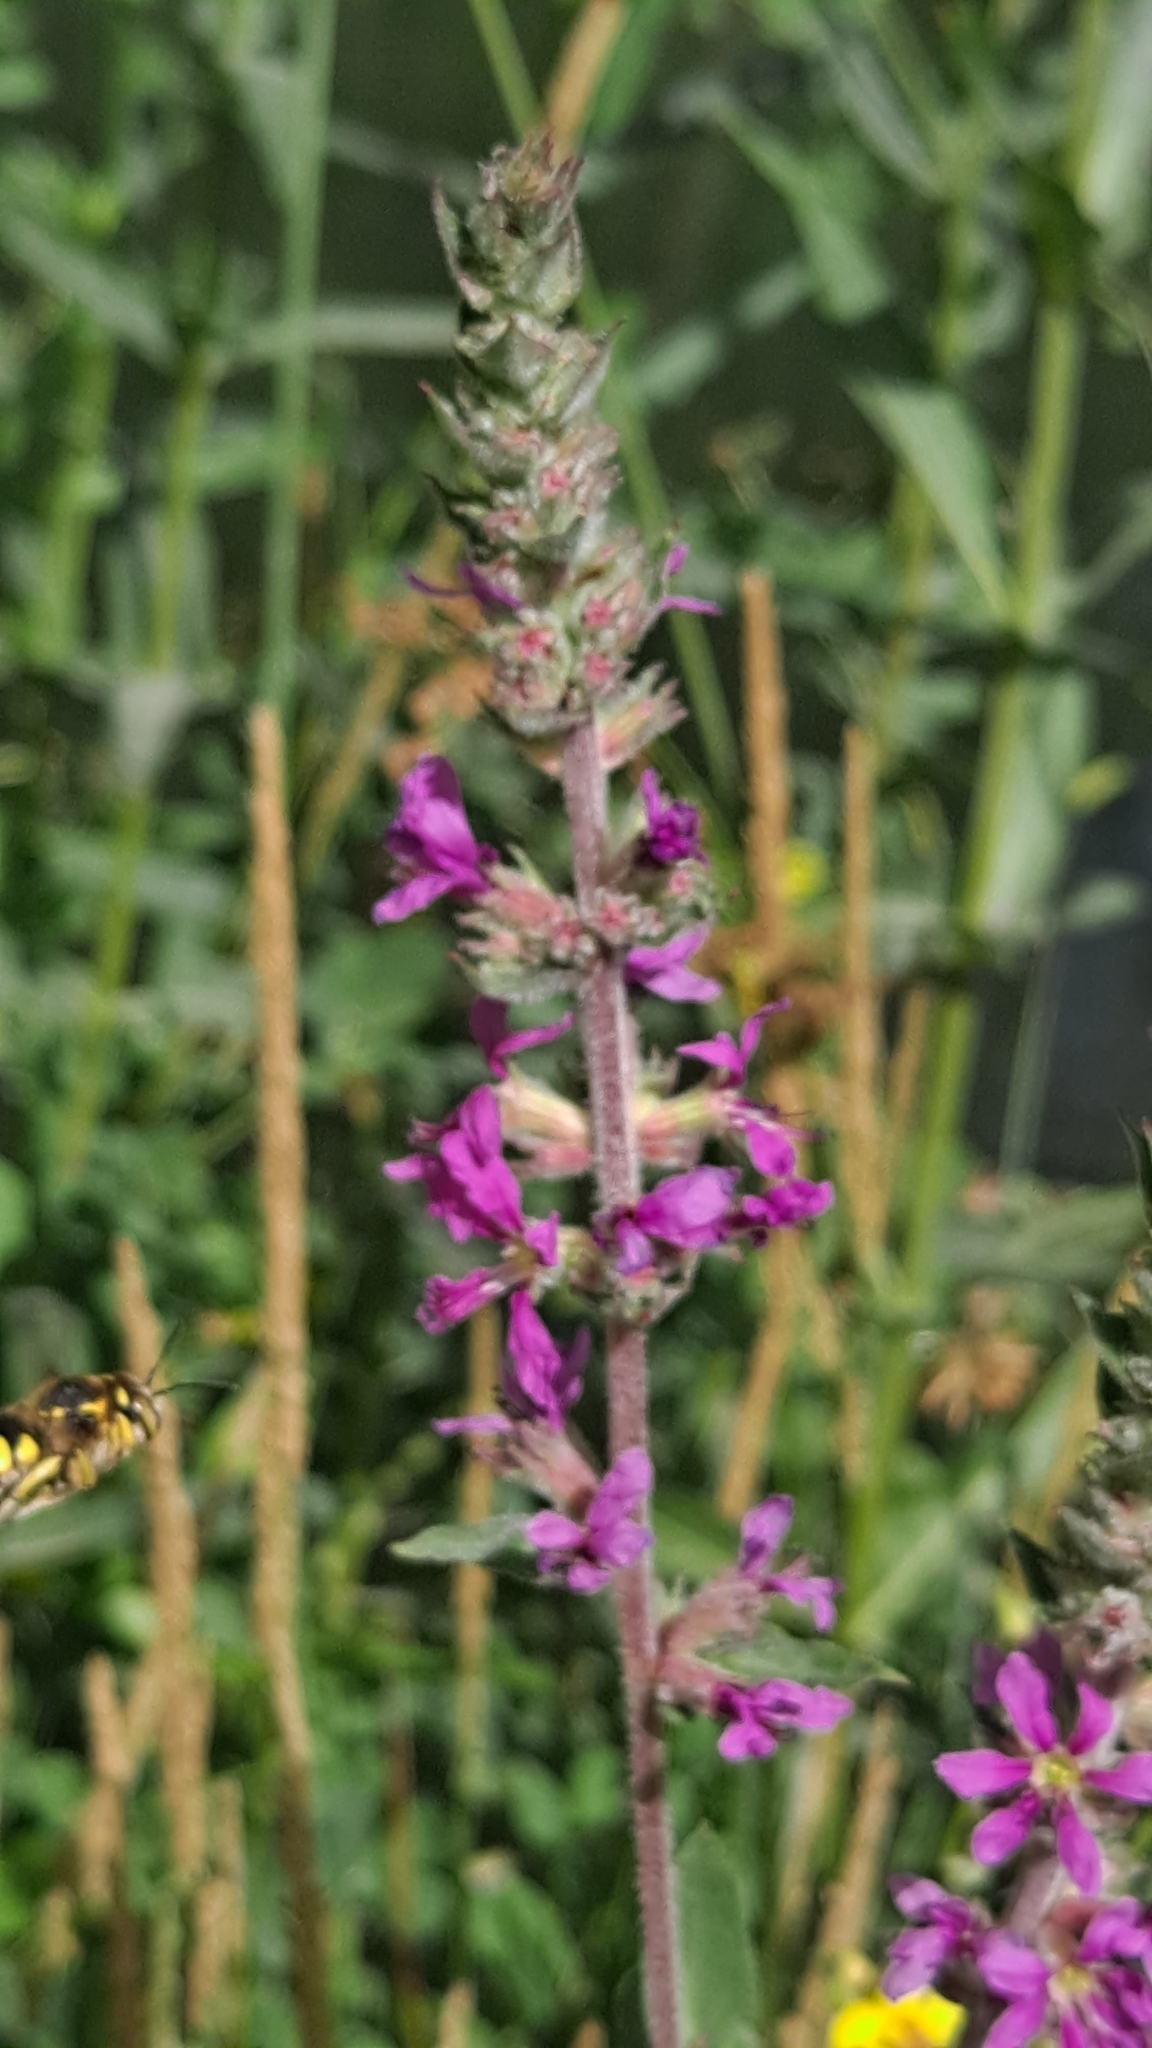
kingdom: Plantae
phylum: Tracheophyta
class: Magnoliopsida
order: Myrtales
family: Lythraceae
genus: Lythrum
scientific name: Lythrum salicaria
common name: Purple loosestrife
